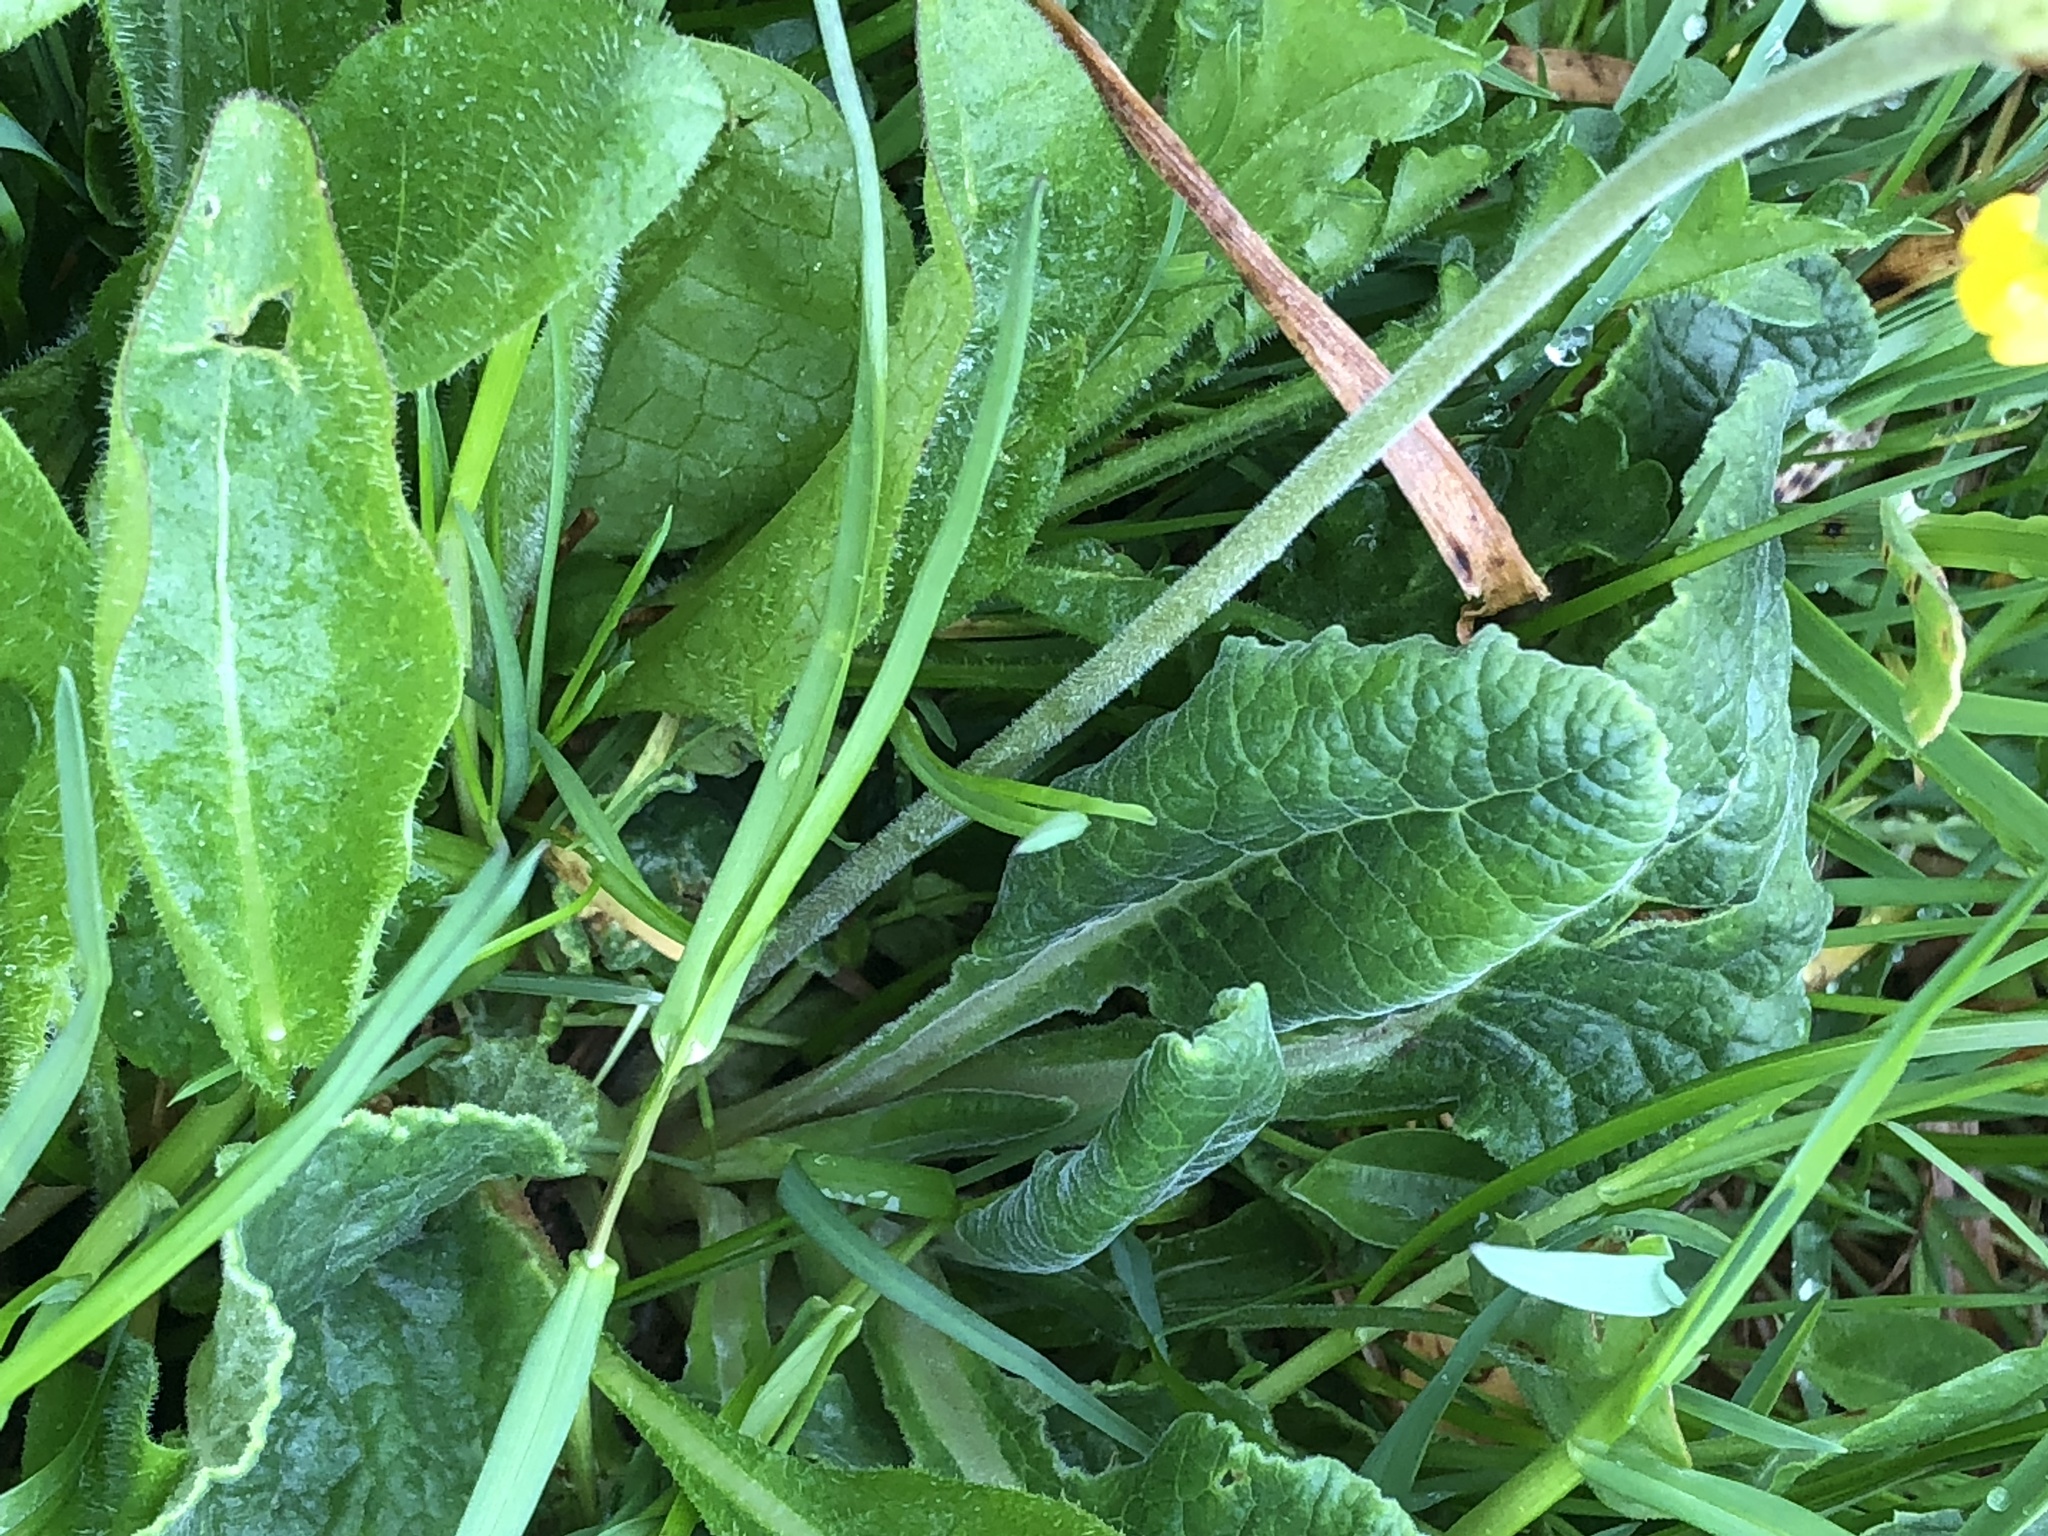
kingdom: Plantae
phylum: Tracheophyta
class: Magnoliopsida
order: Ericales
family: Primulaceae
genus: Primula
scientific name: Primula veris
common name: Cowslip
